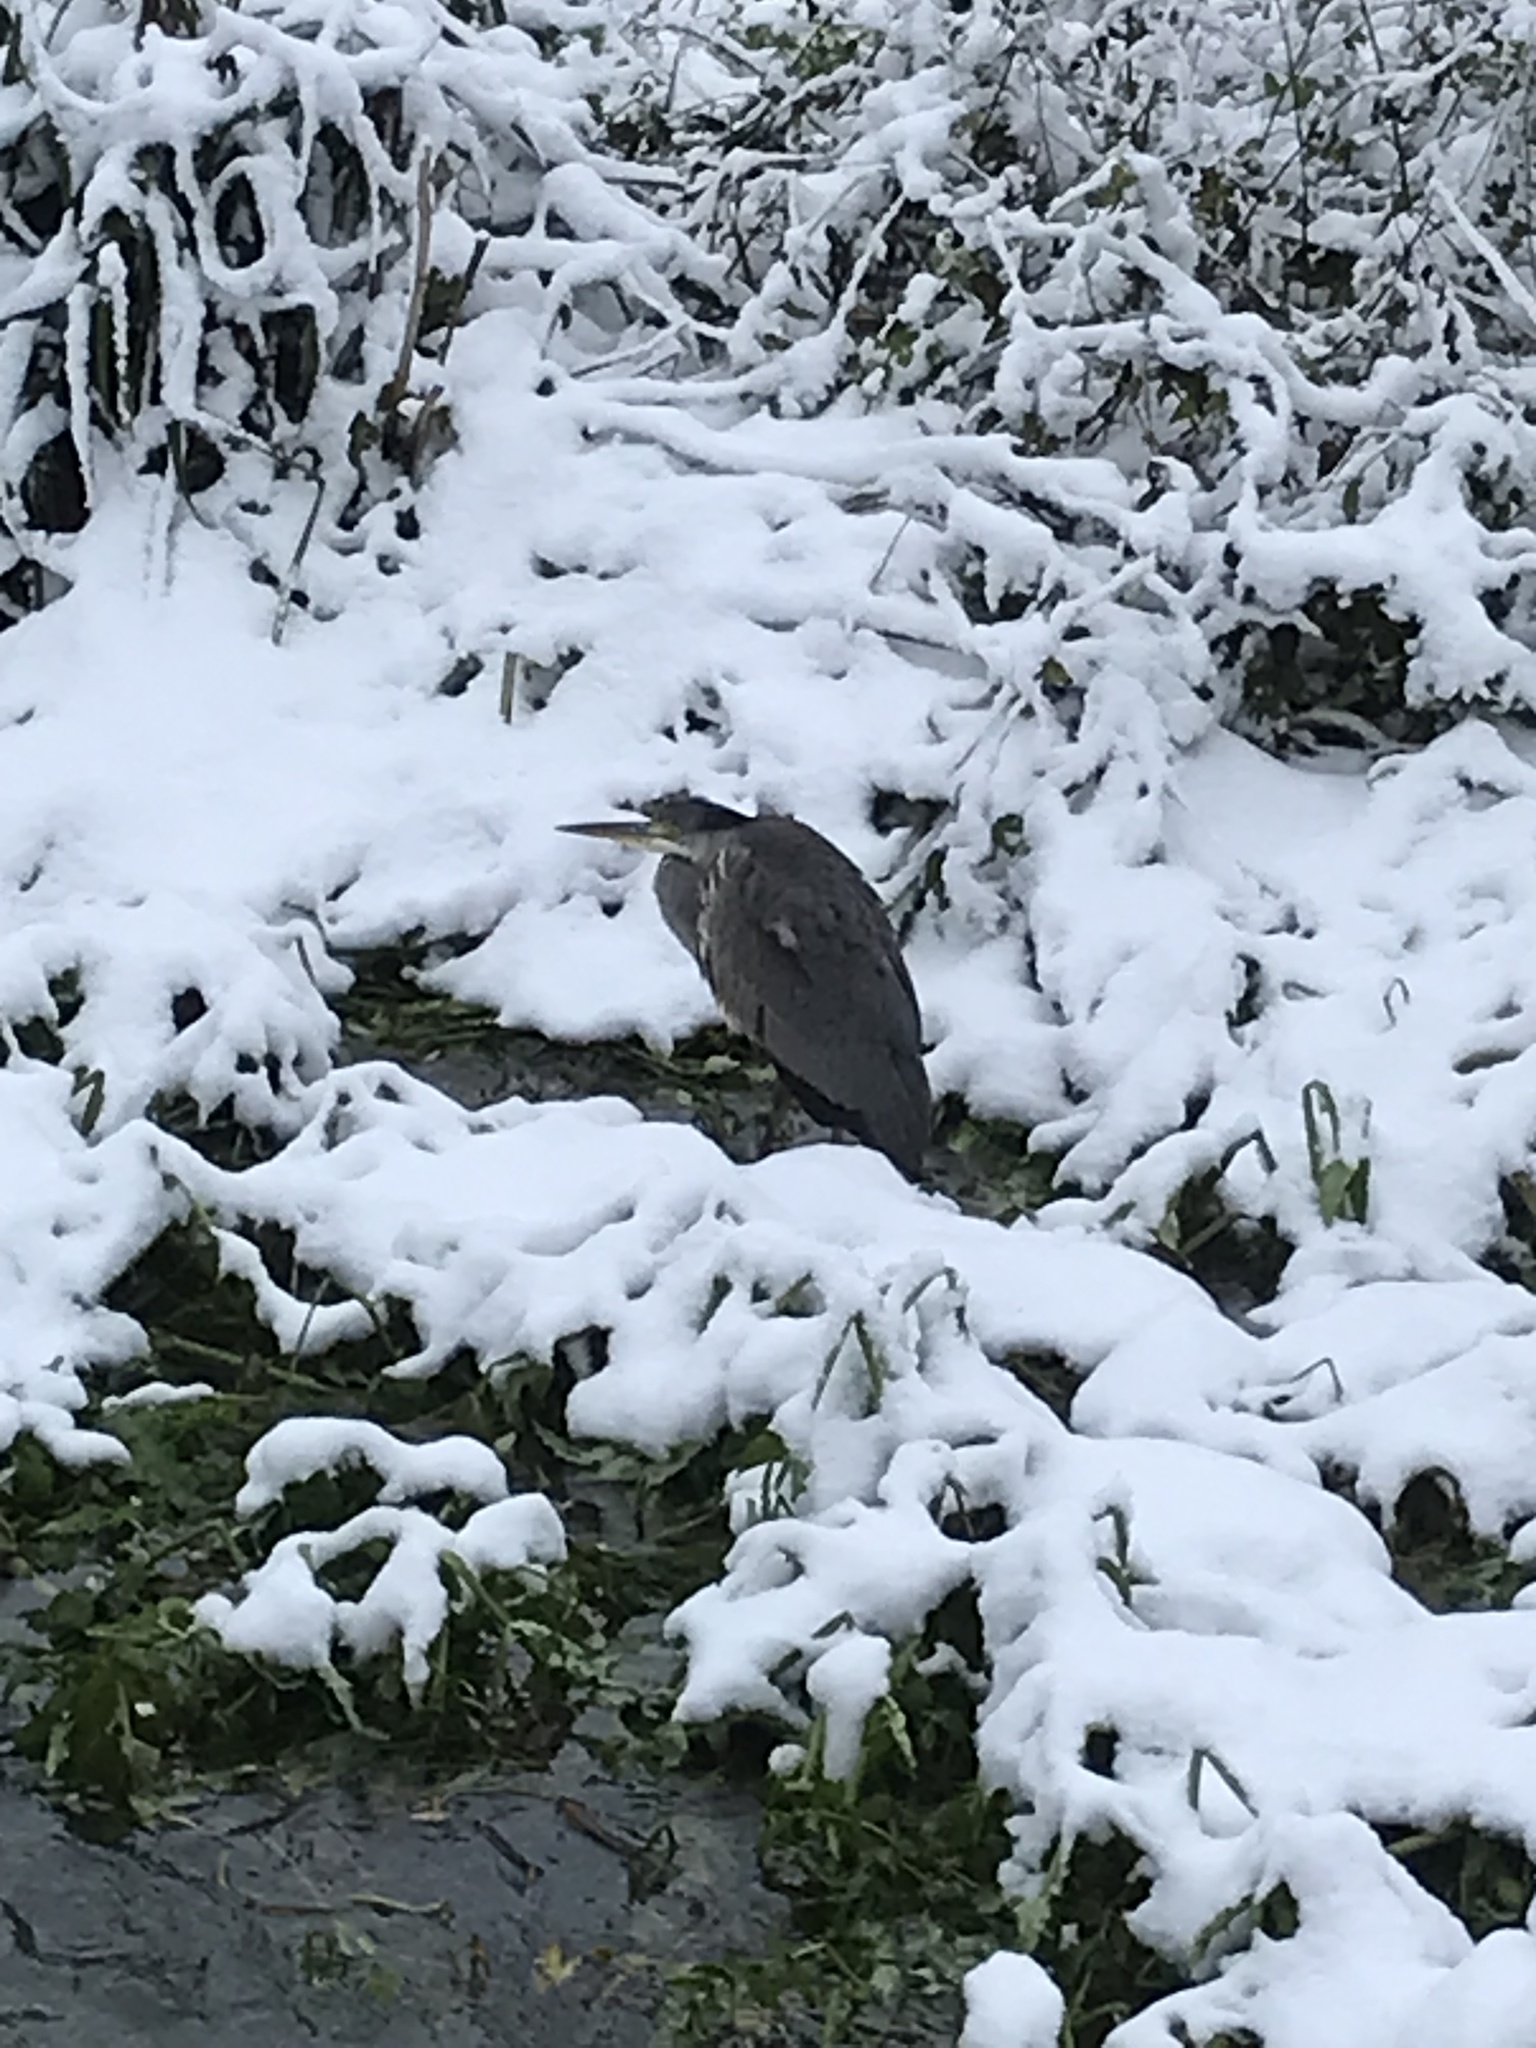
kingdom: Animalia
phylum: Chordata
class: Aves
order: Pelecaniformes
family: Ardeidae
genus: Ardea
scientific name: Ardea cinerea
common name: Grey heron
